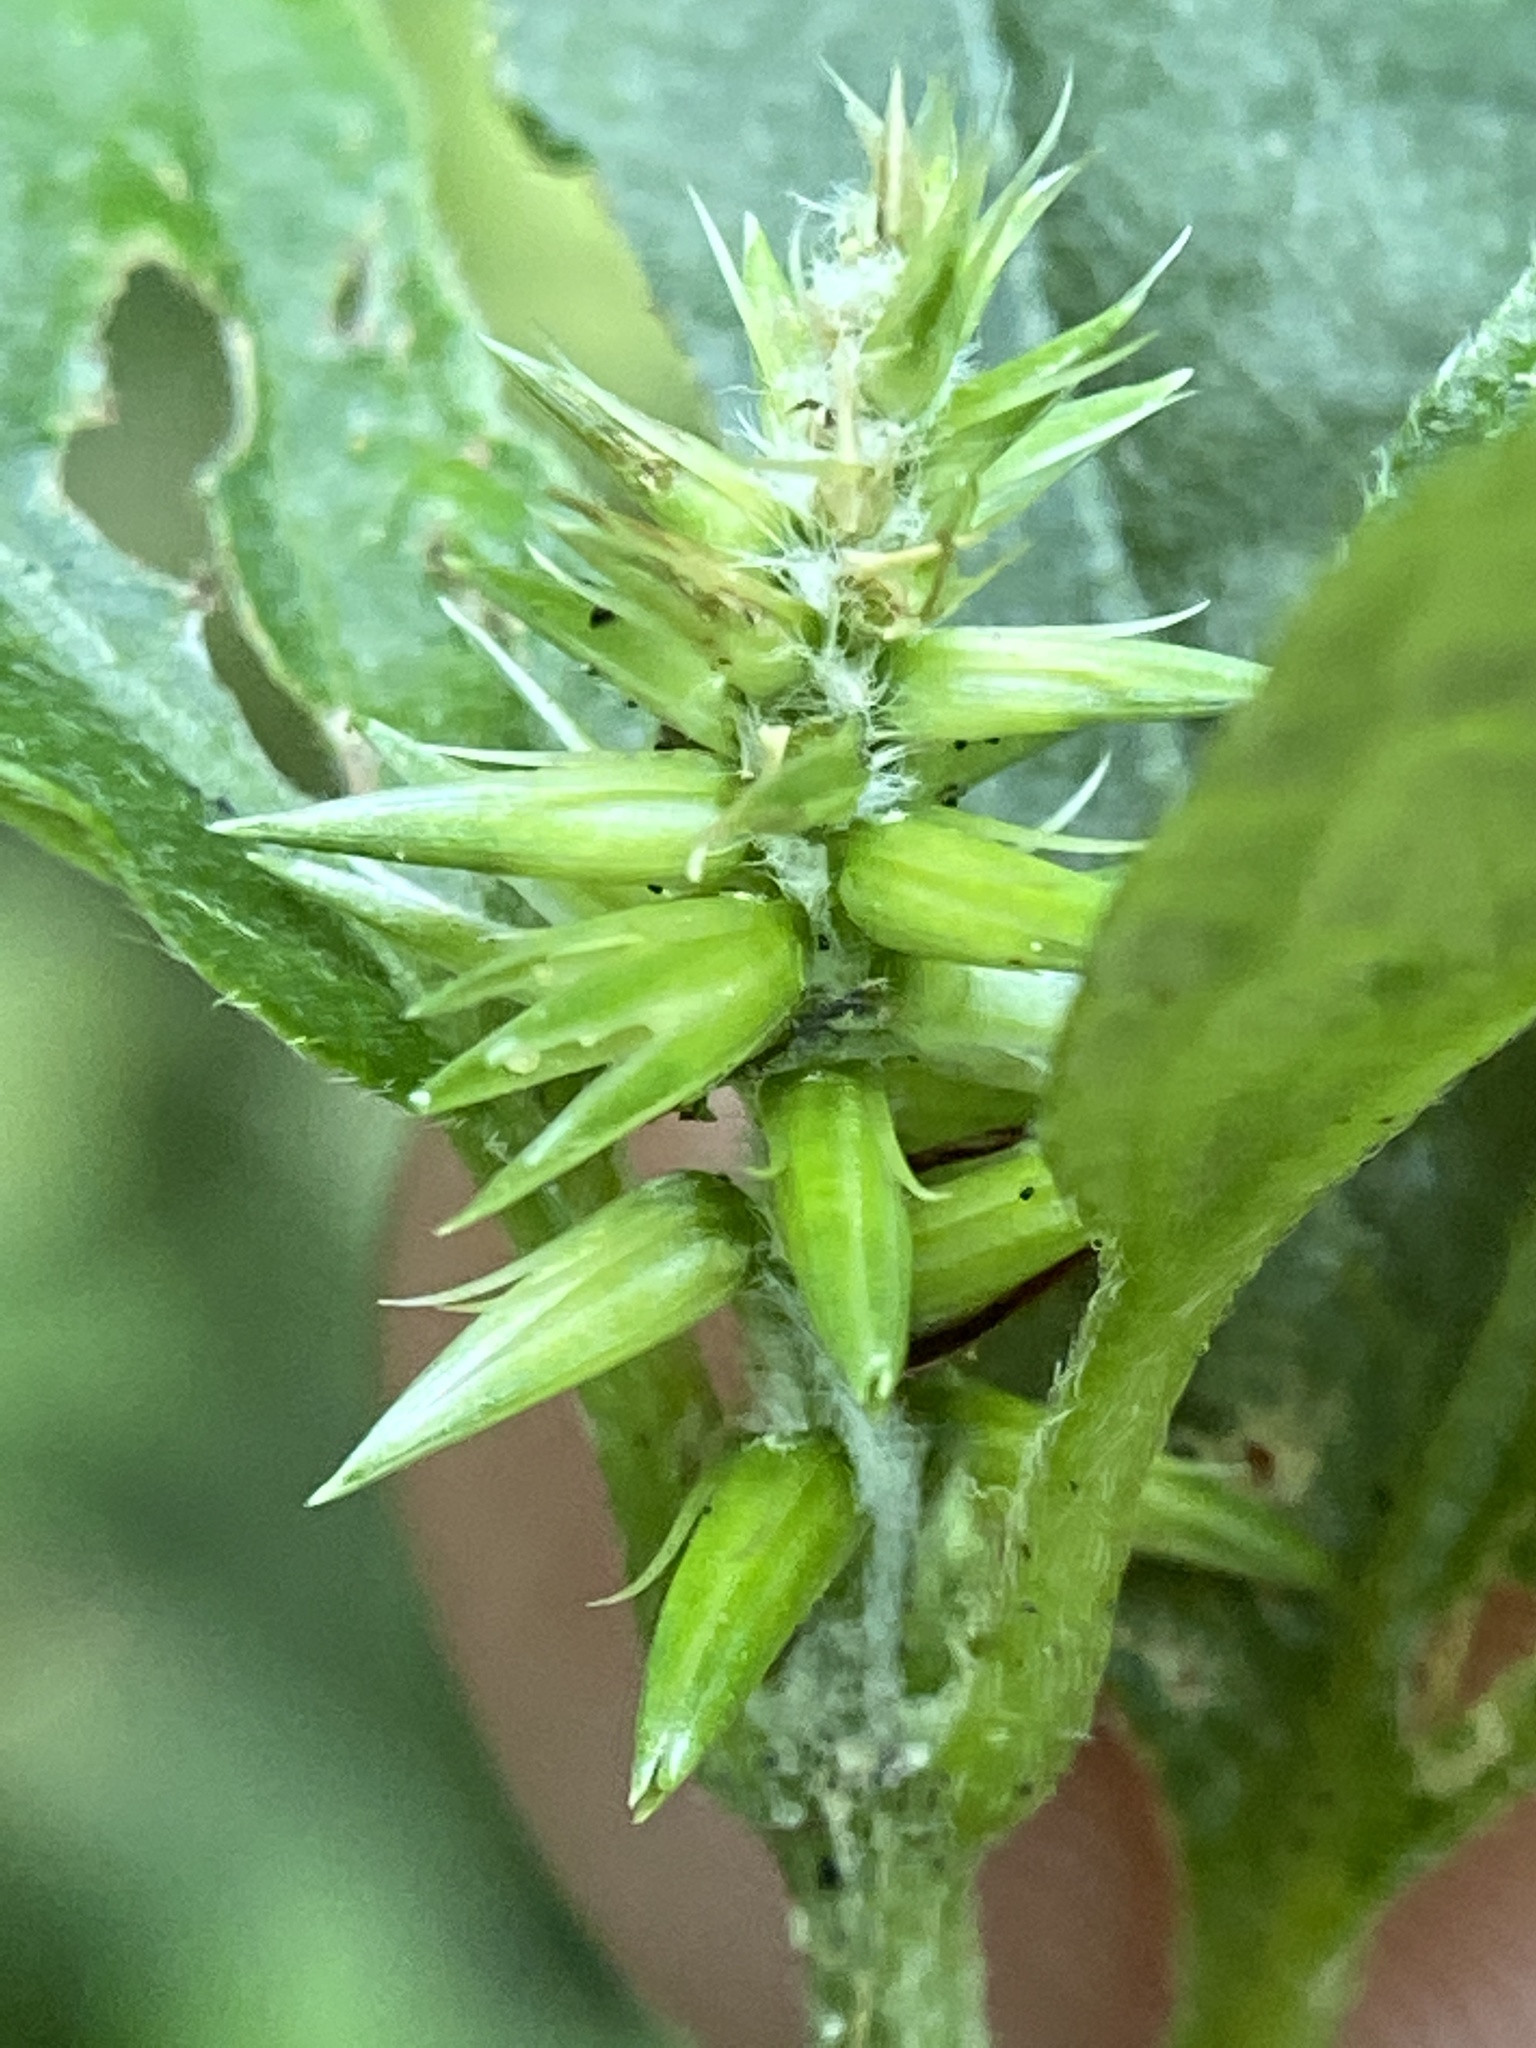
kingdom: Plantae
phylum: Tracheophyta
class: Magnoliopsida
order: Caryophyllales
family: Amaranthaceae
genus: Achyranthes
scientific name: Achyranthes bidentata
